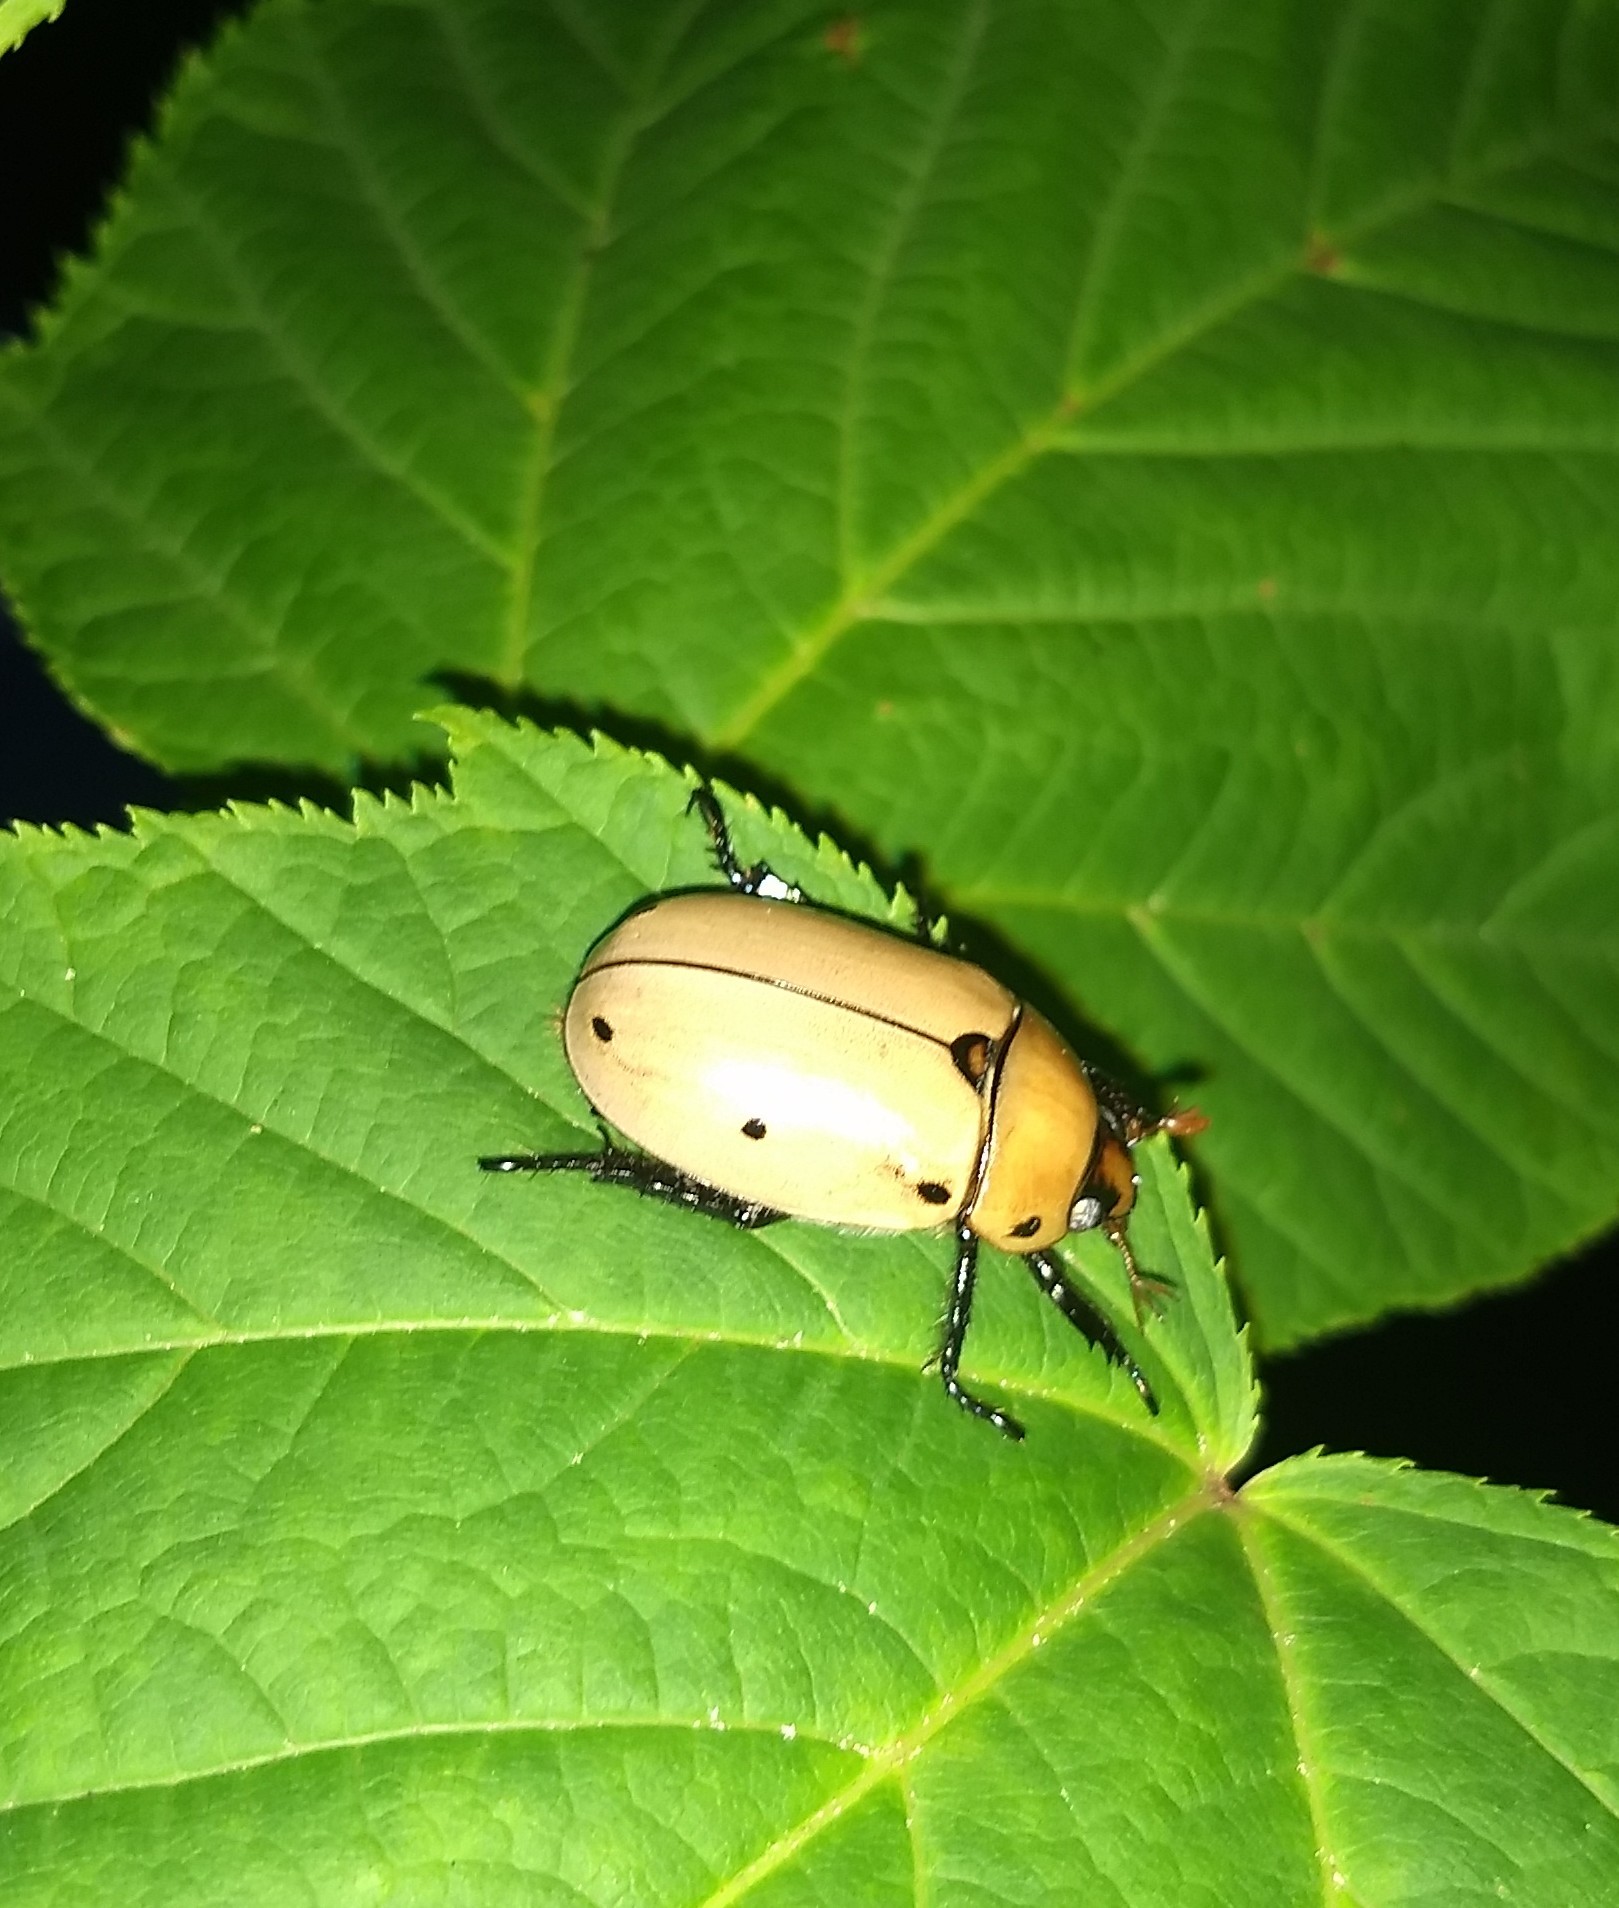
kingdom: Animalia
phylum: Arthropoda
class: Insecta
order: Coleoptera
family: Scarabaeidae
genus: Pelidnota
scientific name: Pelidnota punctata
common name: Grapevine beetle
